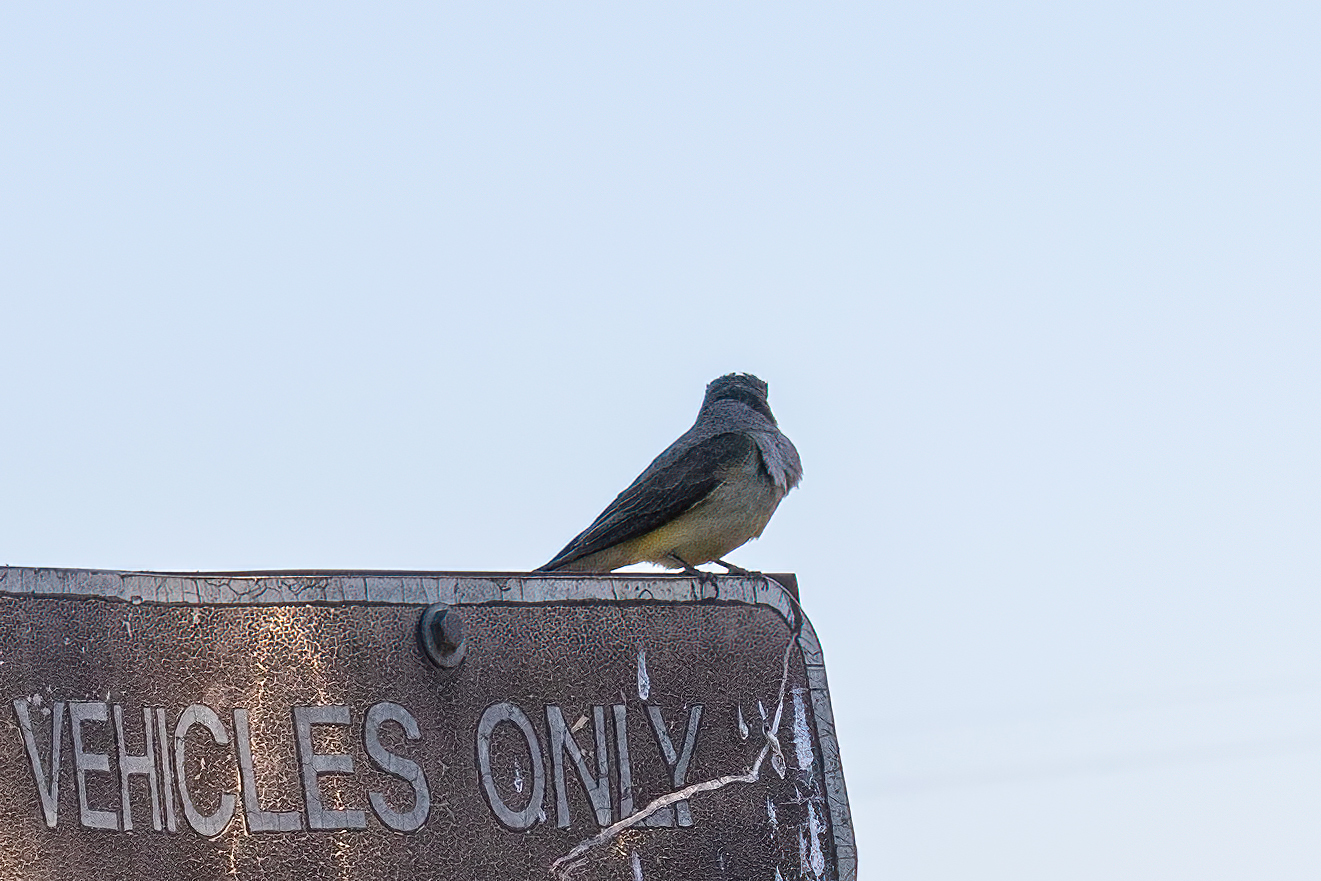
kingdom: Animalia
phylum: Chordata
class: Aves
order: Passeriformes
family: Tyrannidae
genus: Tyrannus
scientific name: Tyrannus verticalis
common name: Western kingbird
